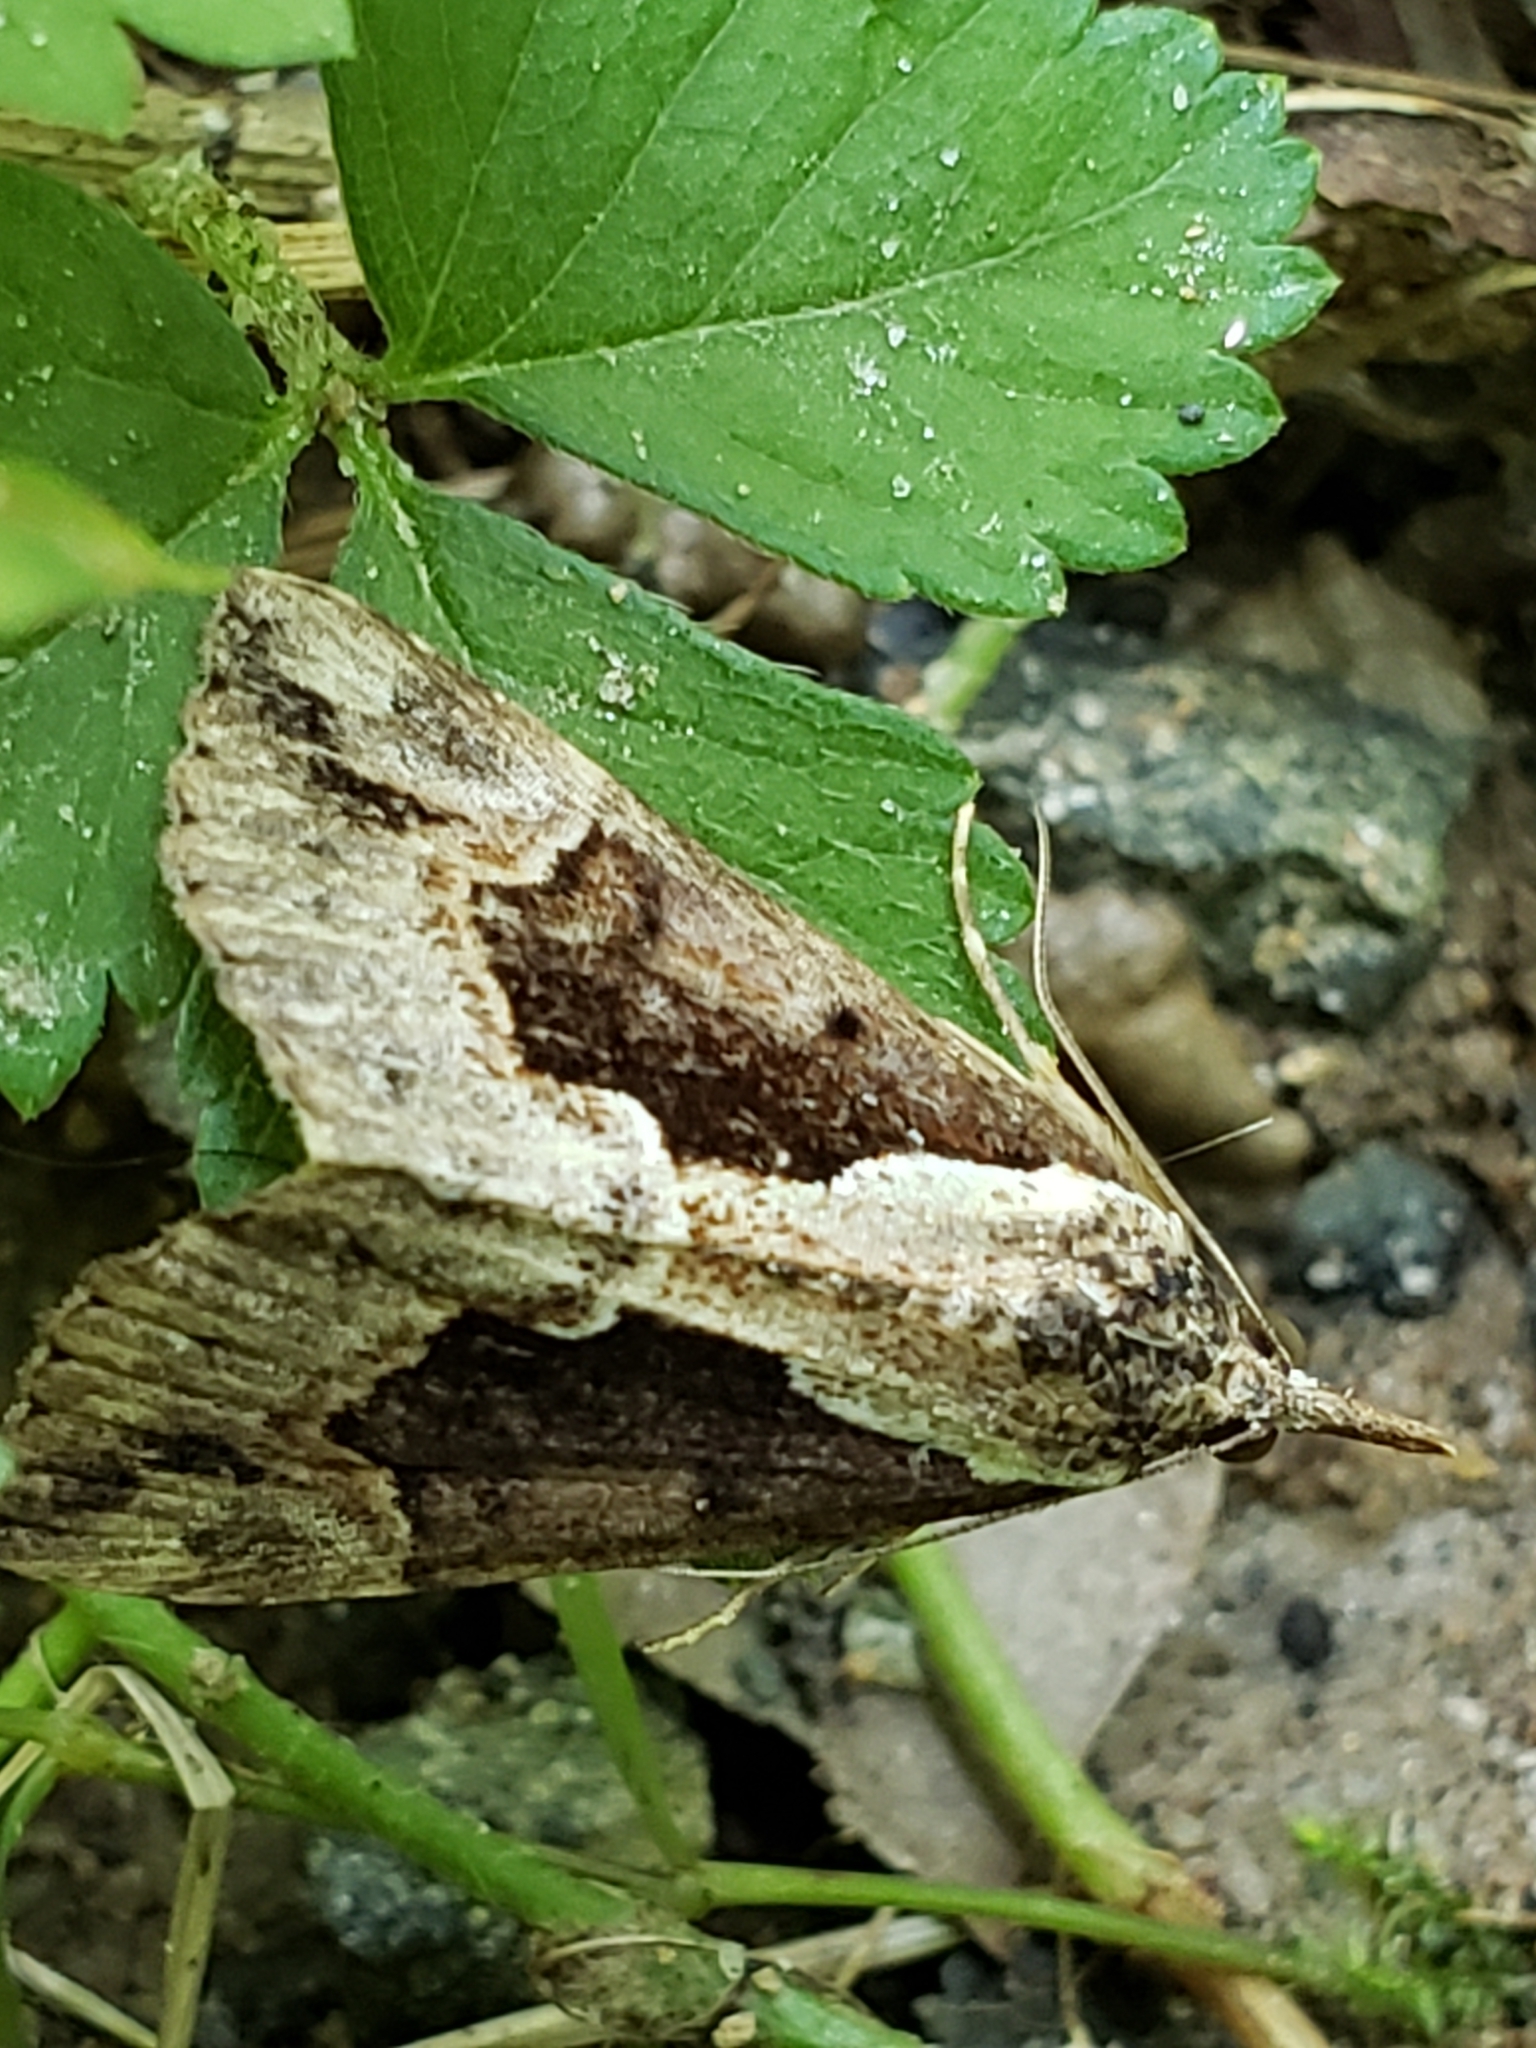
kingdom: Animalia
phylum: Arthropoda
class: Insecta
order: Lepidoptera
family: Erebidae
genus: Hypena
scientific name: Hypena baltimoralis
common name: Baltimore snout
